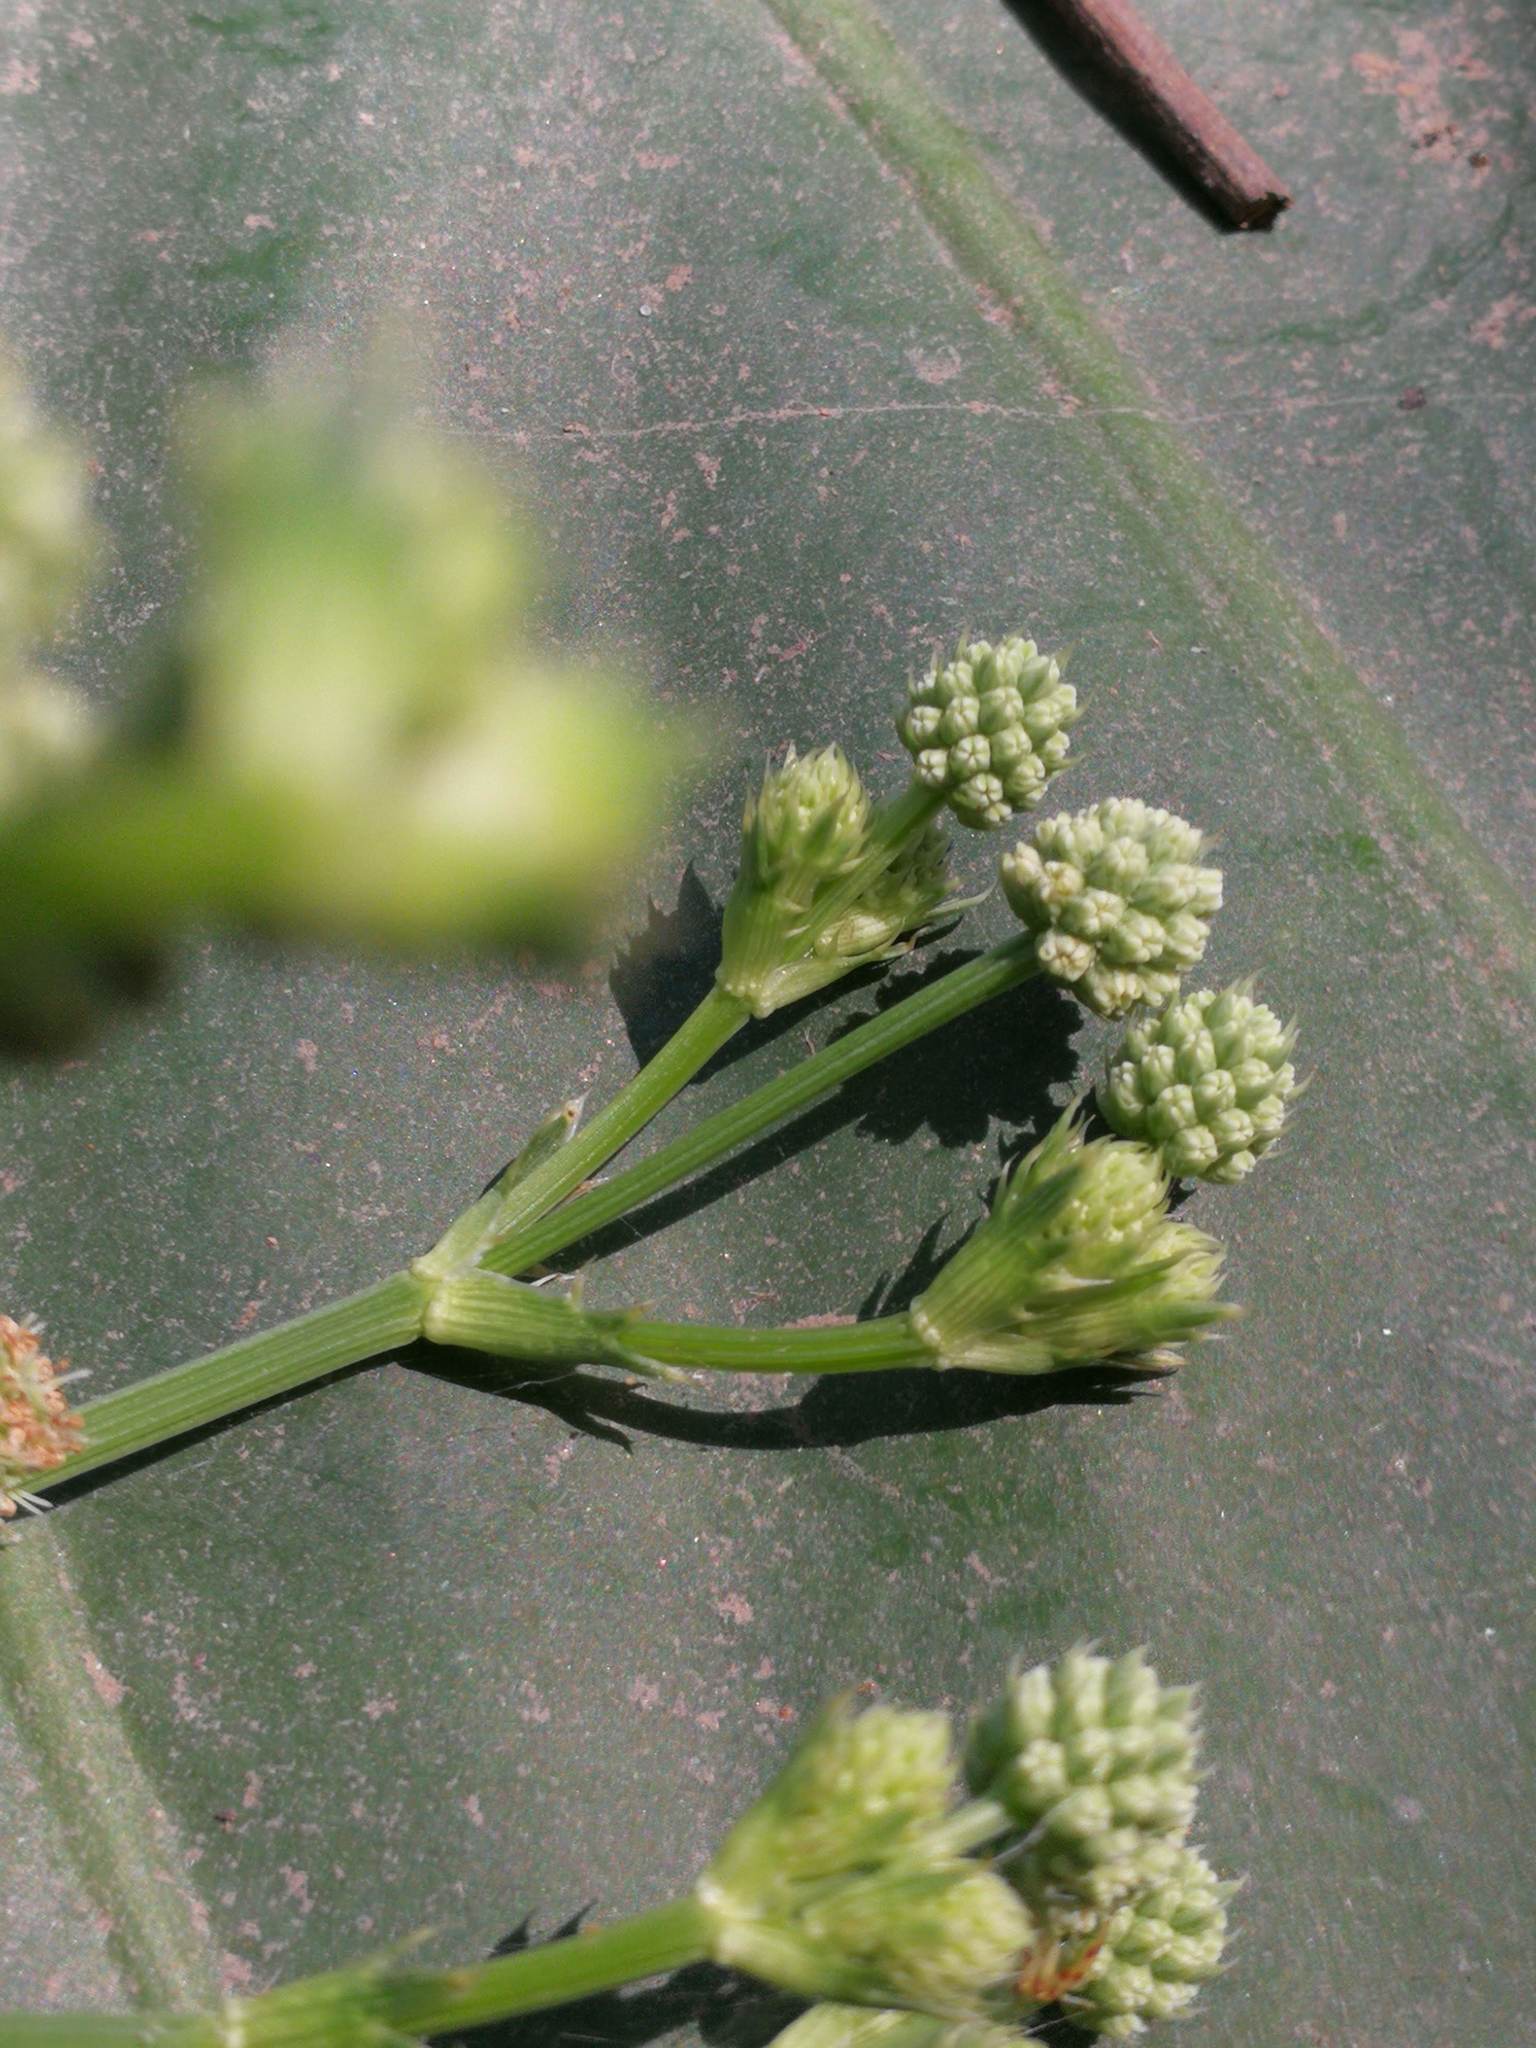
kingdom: Plantae
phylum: Tracheophyta
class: Magnoliopsida
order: Apiales
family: Apiaceae
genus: Eryngium
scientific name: Eryngium pandanifolium
